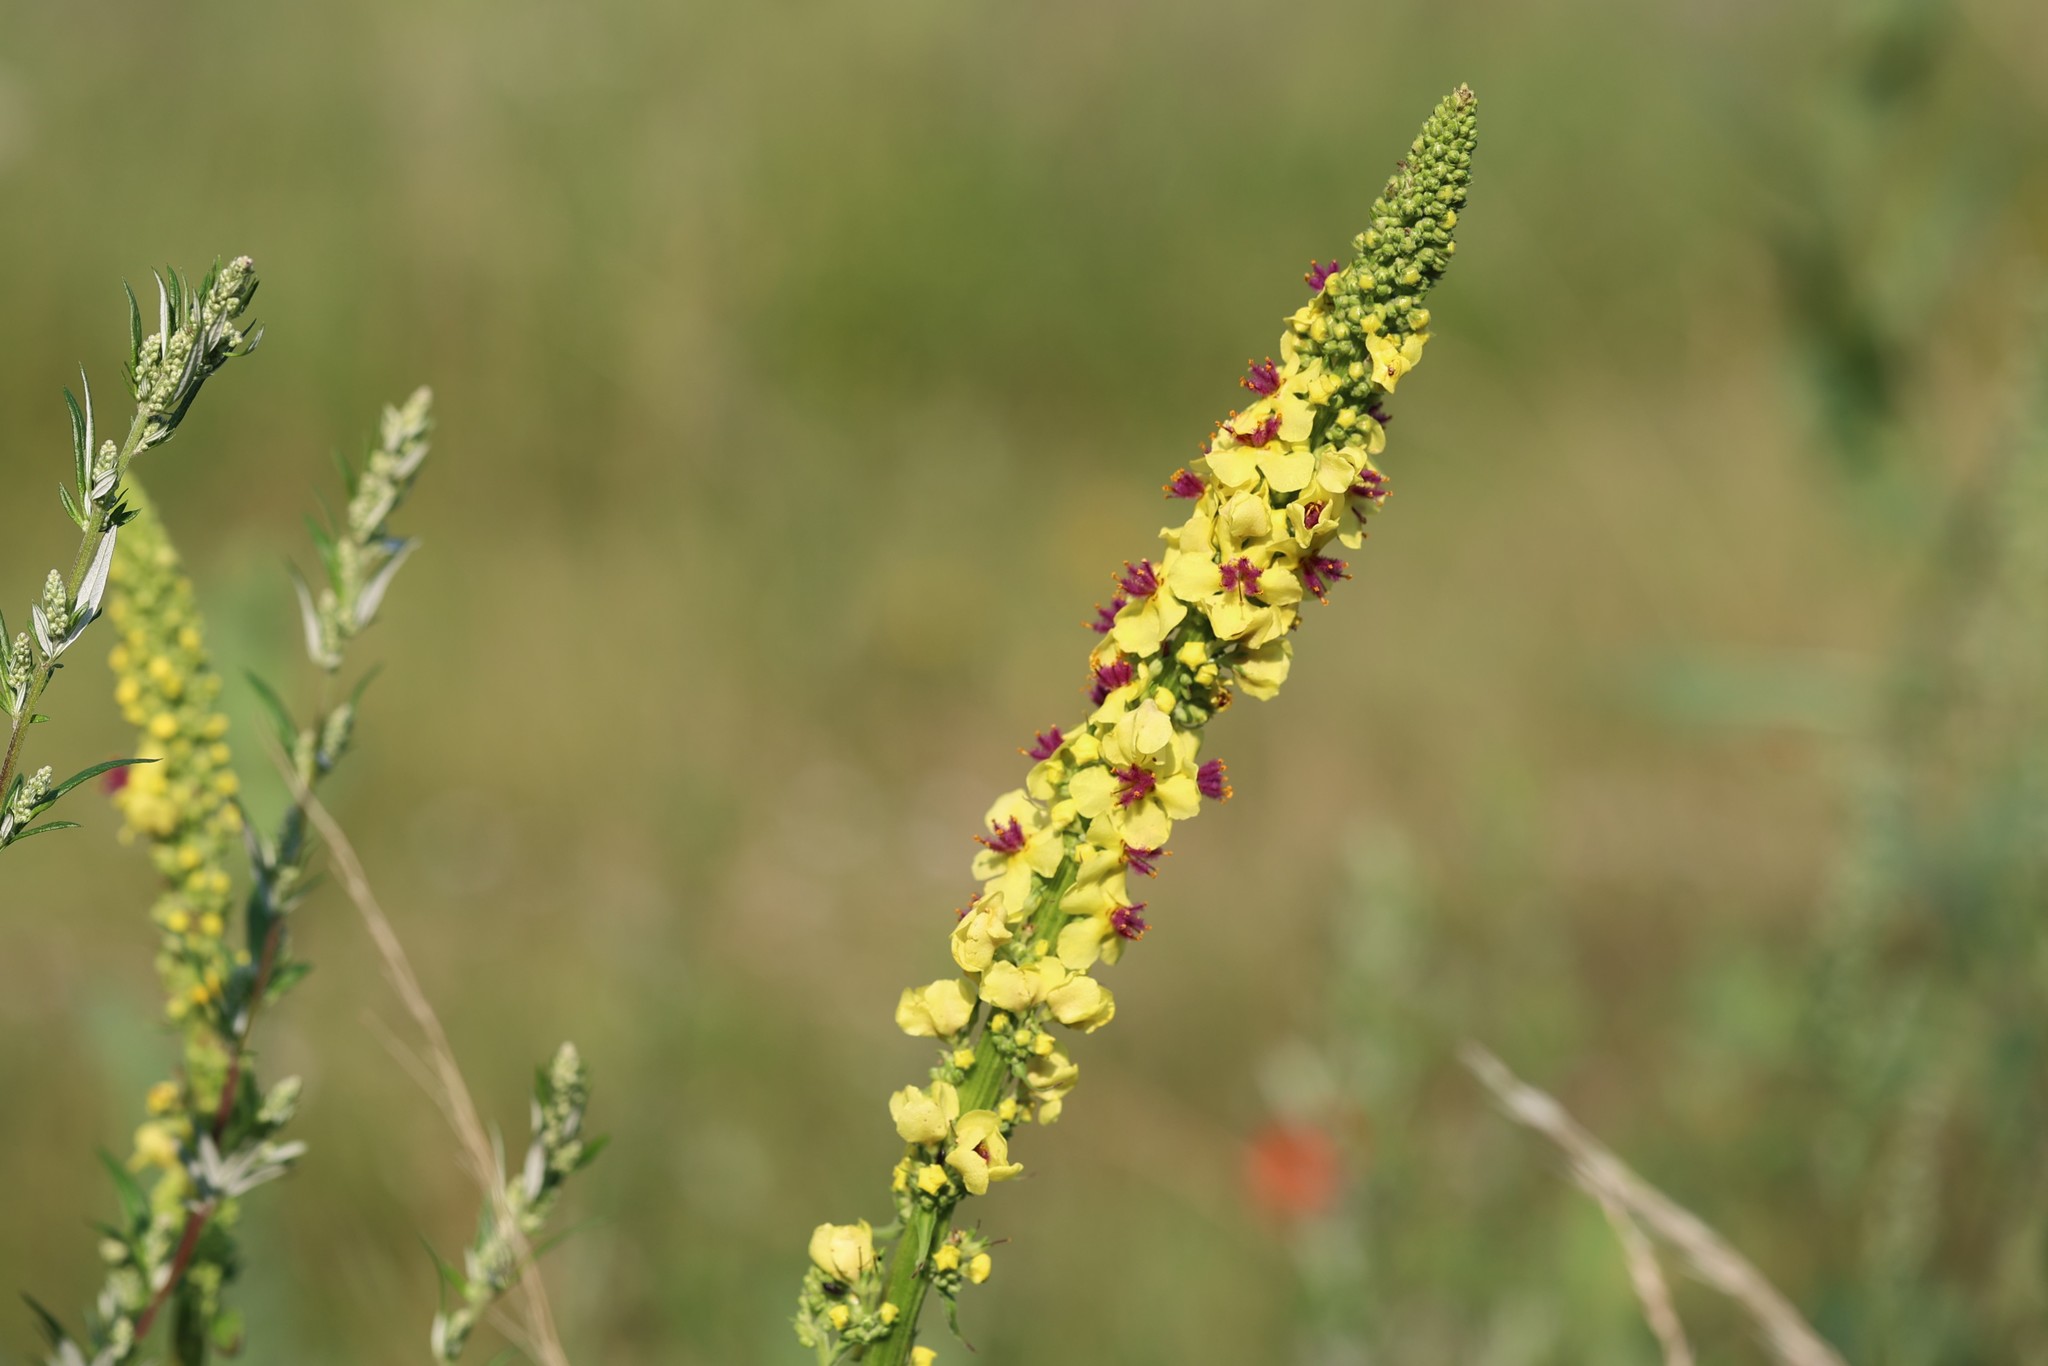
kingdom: Plantae
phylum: Tracheophyta
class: Magnoliopsida
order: Lamiales
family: Scrophulariaceae
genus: Verbascum
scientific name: Verbascum nigrum
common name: Dark mullein
